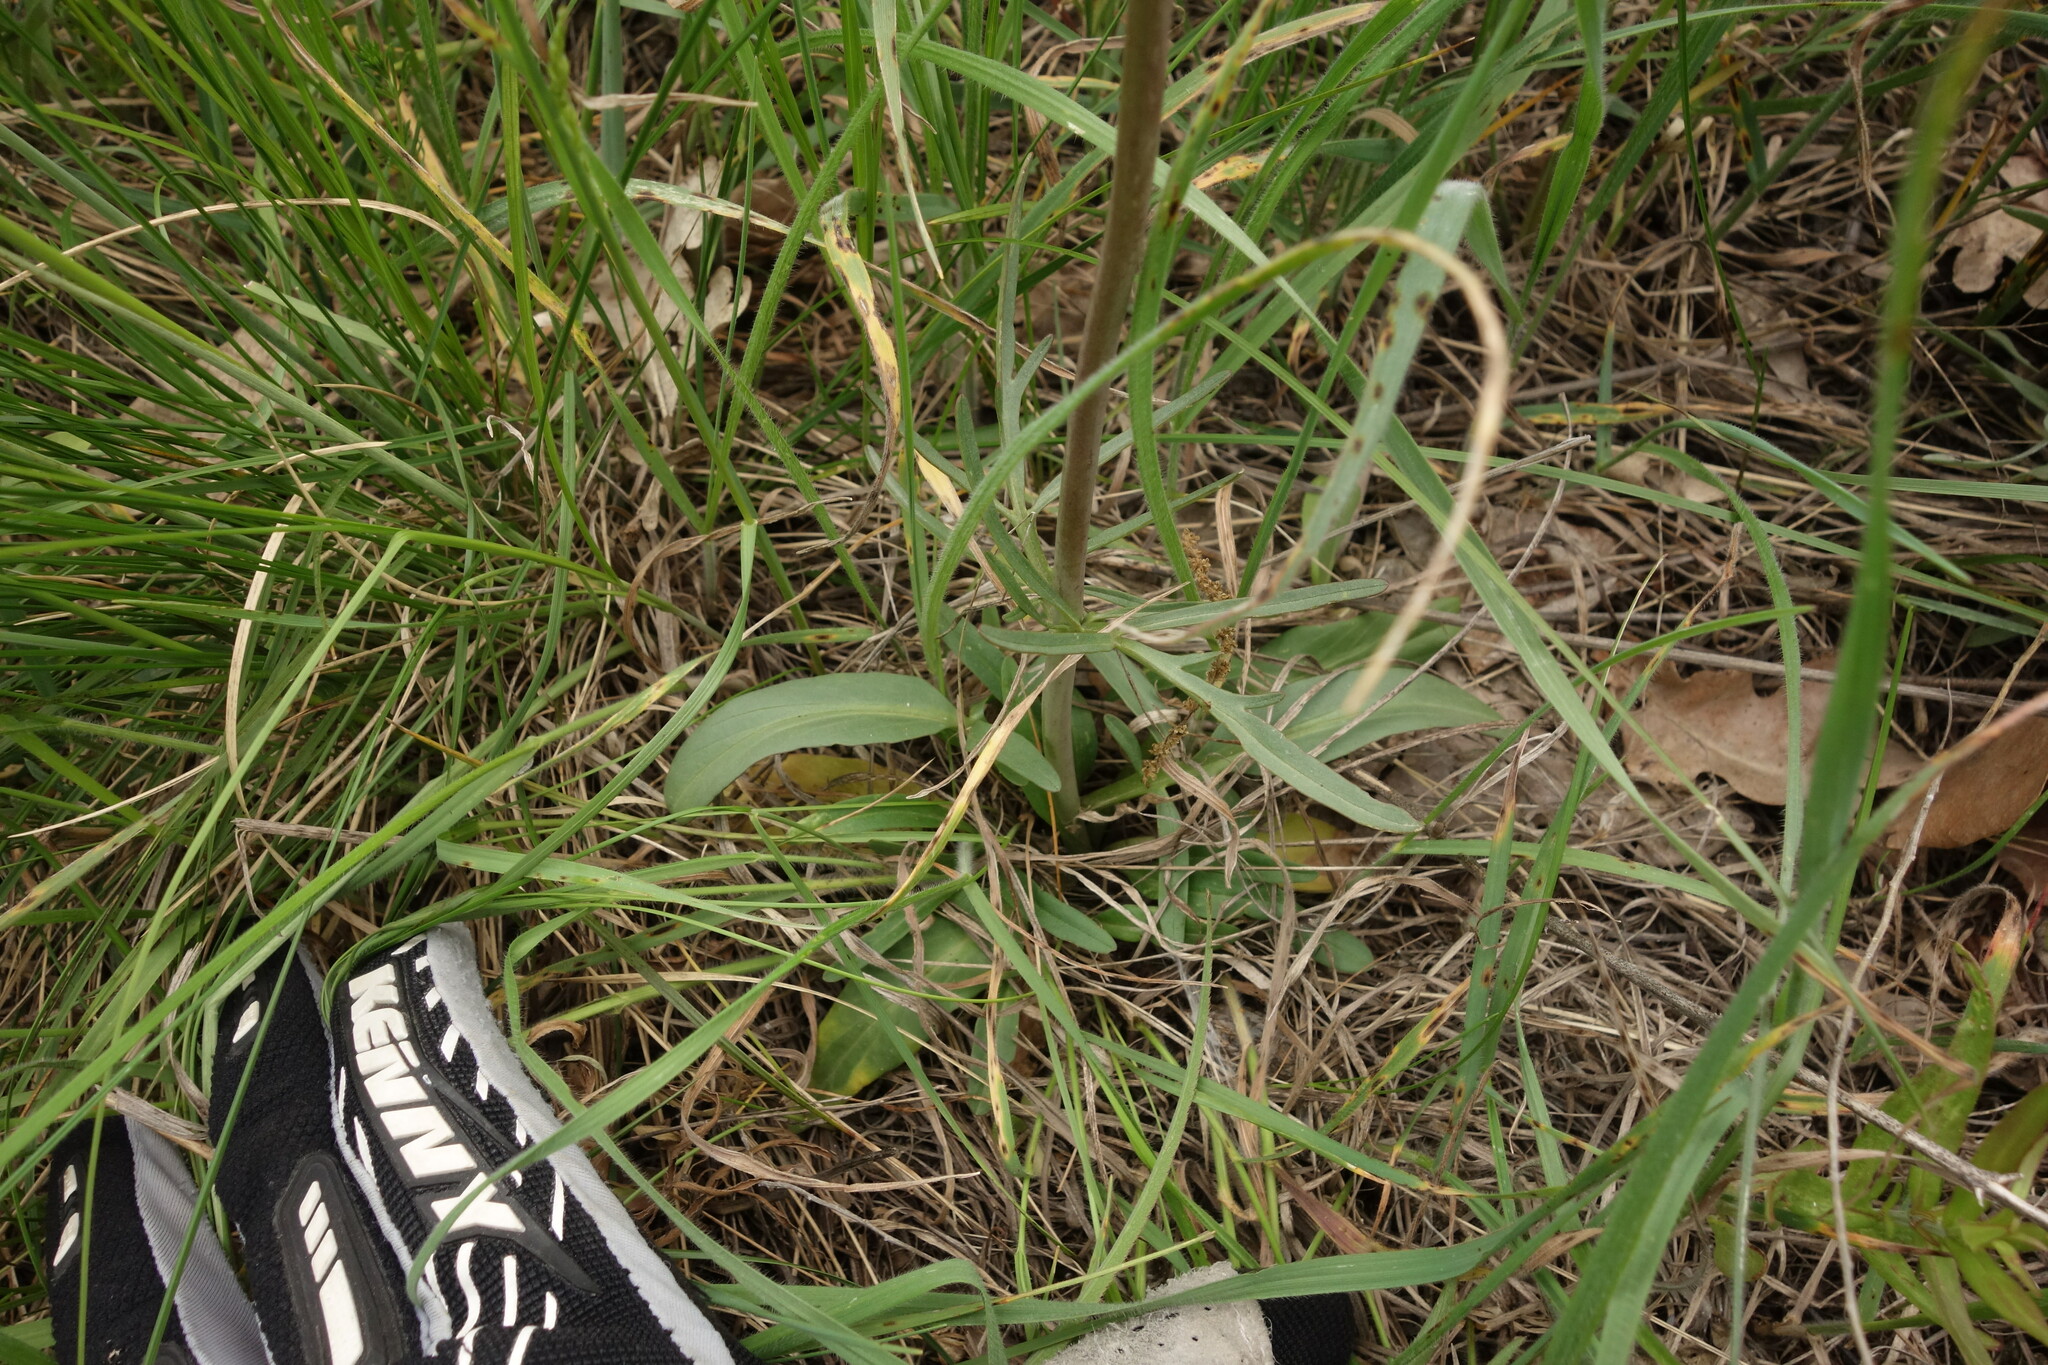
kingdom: Plantae
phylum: Tracheophyta
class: Magnoliopsida
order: Dipsacales
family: Caprifoliaceae
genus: Valeriana
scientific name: Valeriana tuberosa
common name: Tuberous valerian
